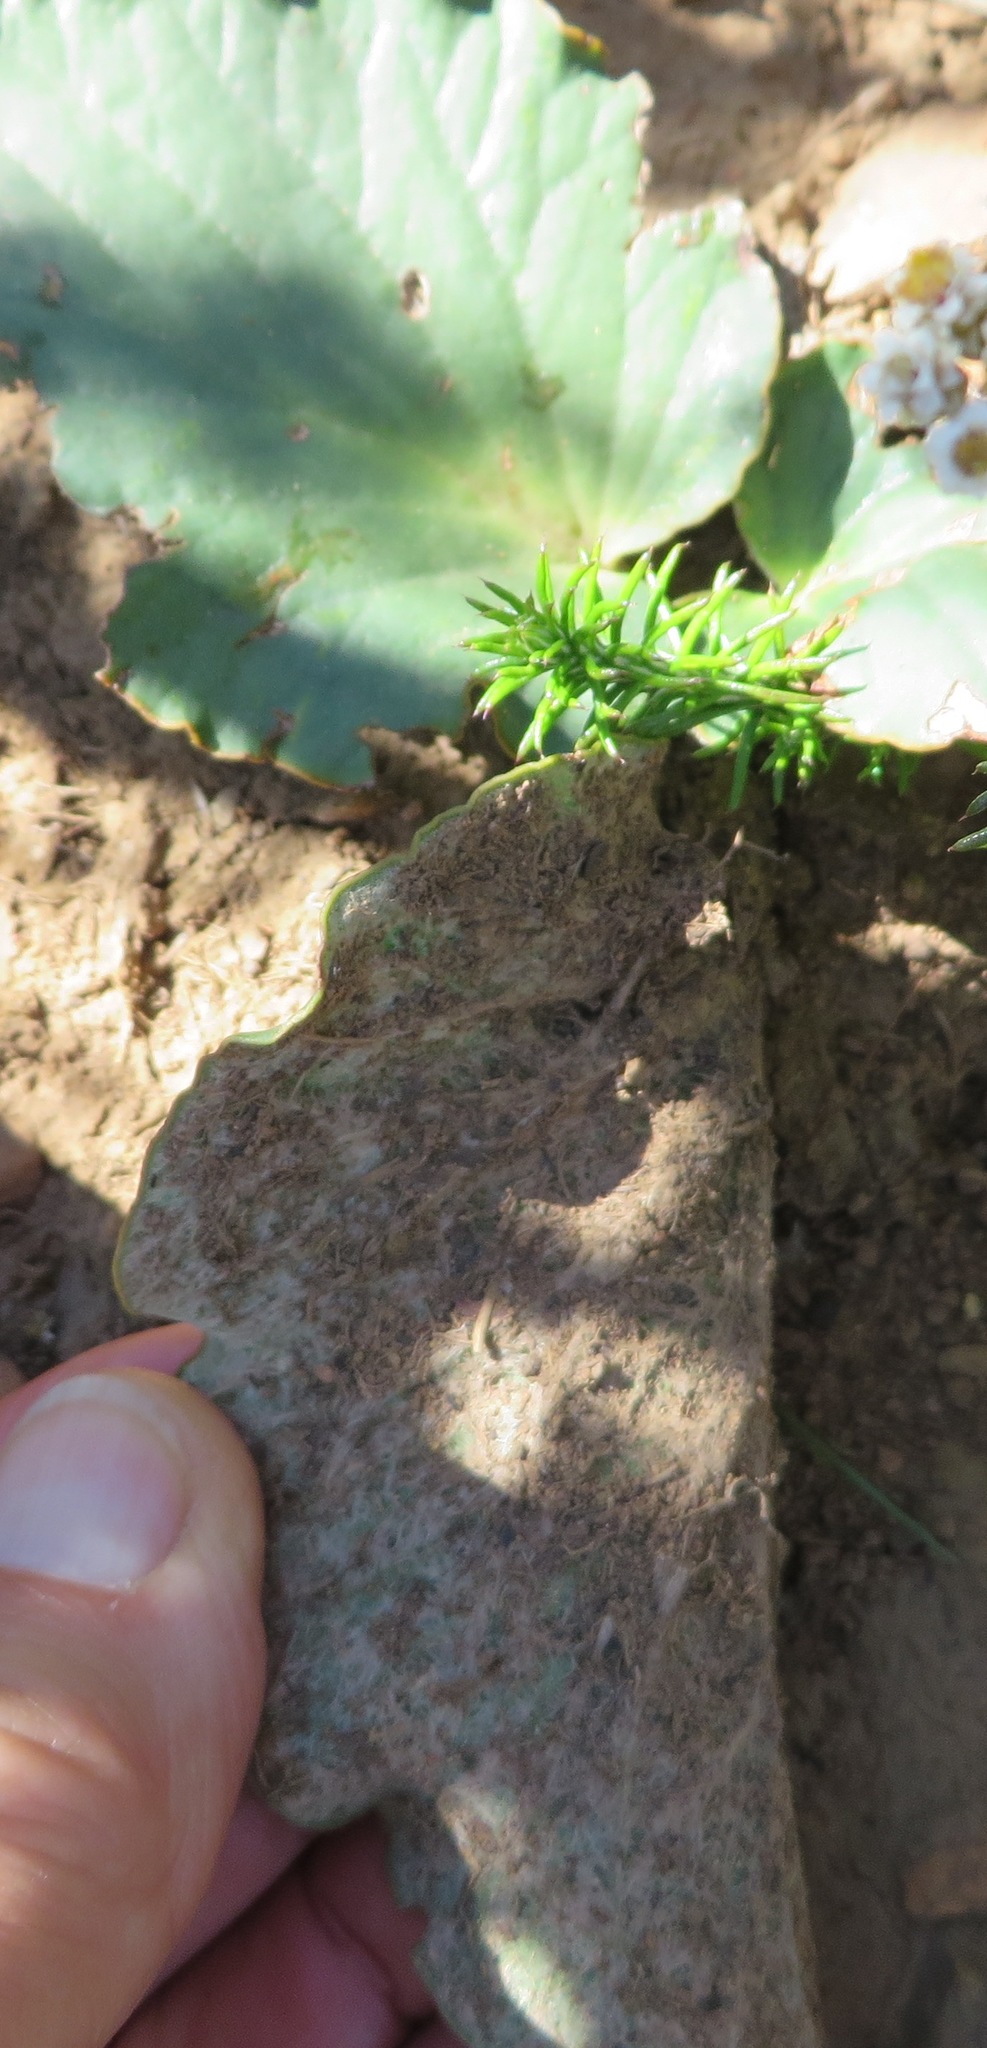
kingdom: Plantae
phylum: Tracheophyta
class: Magnoliopsida
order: Geraniales
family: Geraniaceae
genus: Pelargonium
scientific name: Pelargonium asarifolium
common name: Asarum-leaf pelargonium
